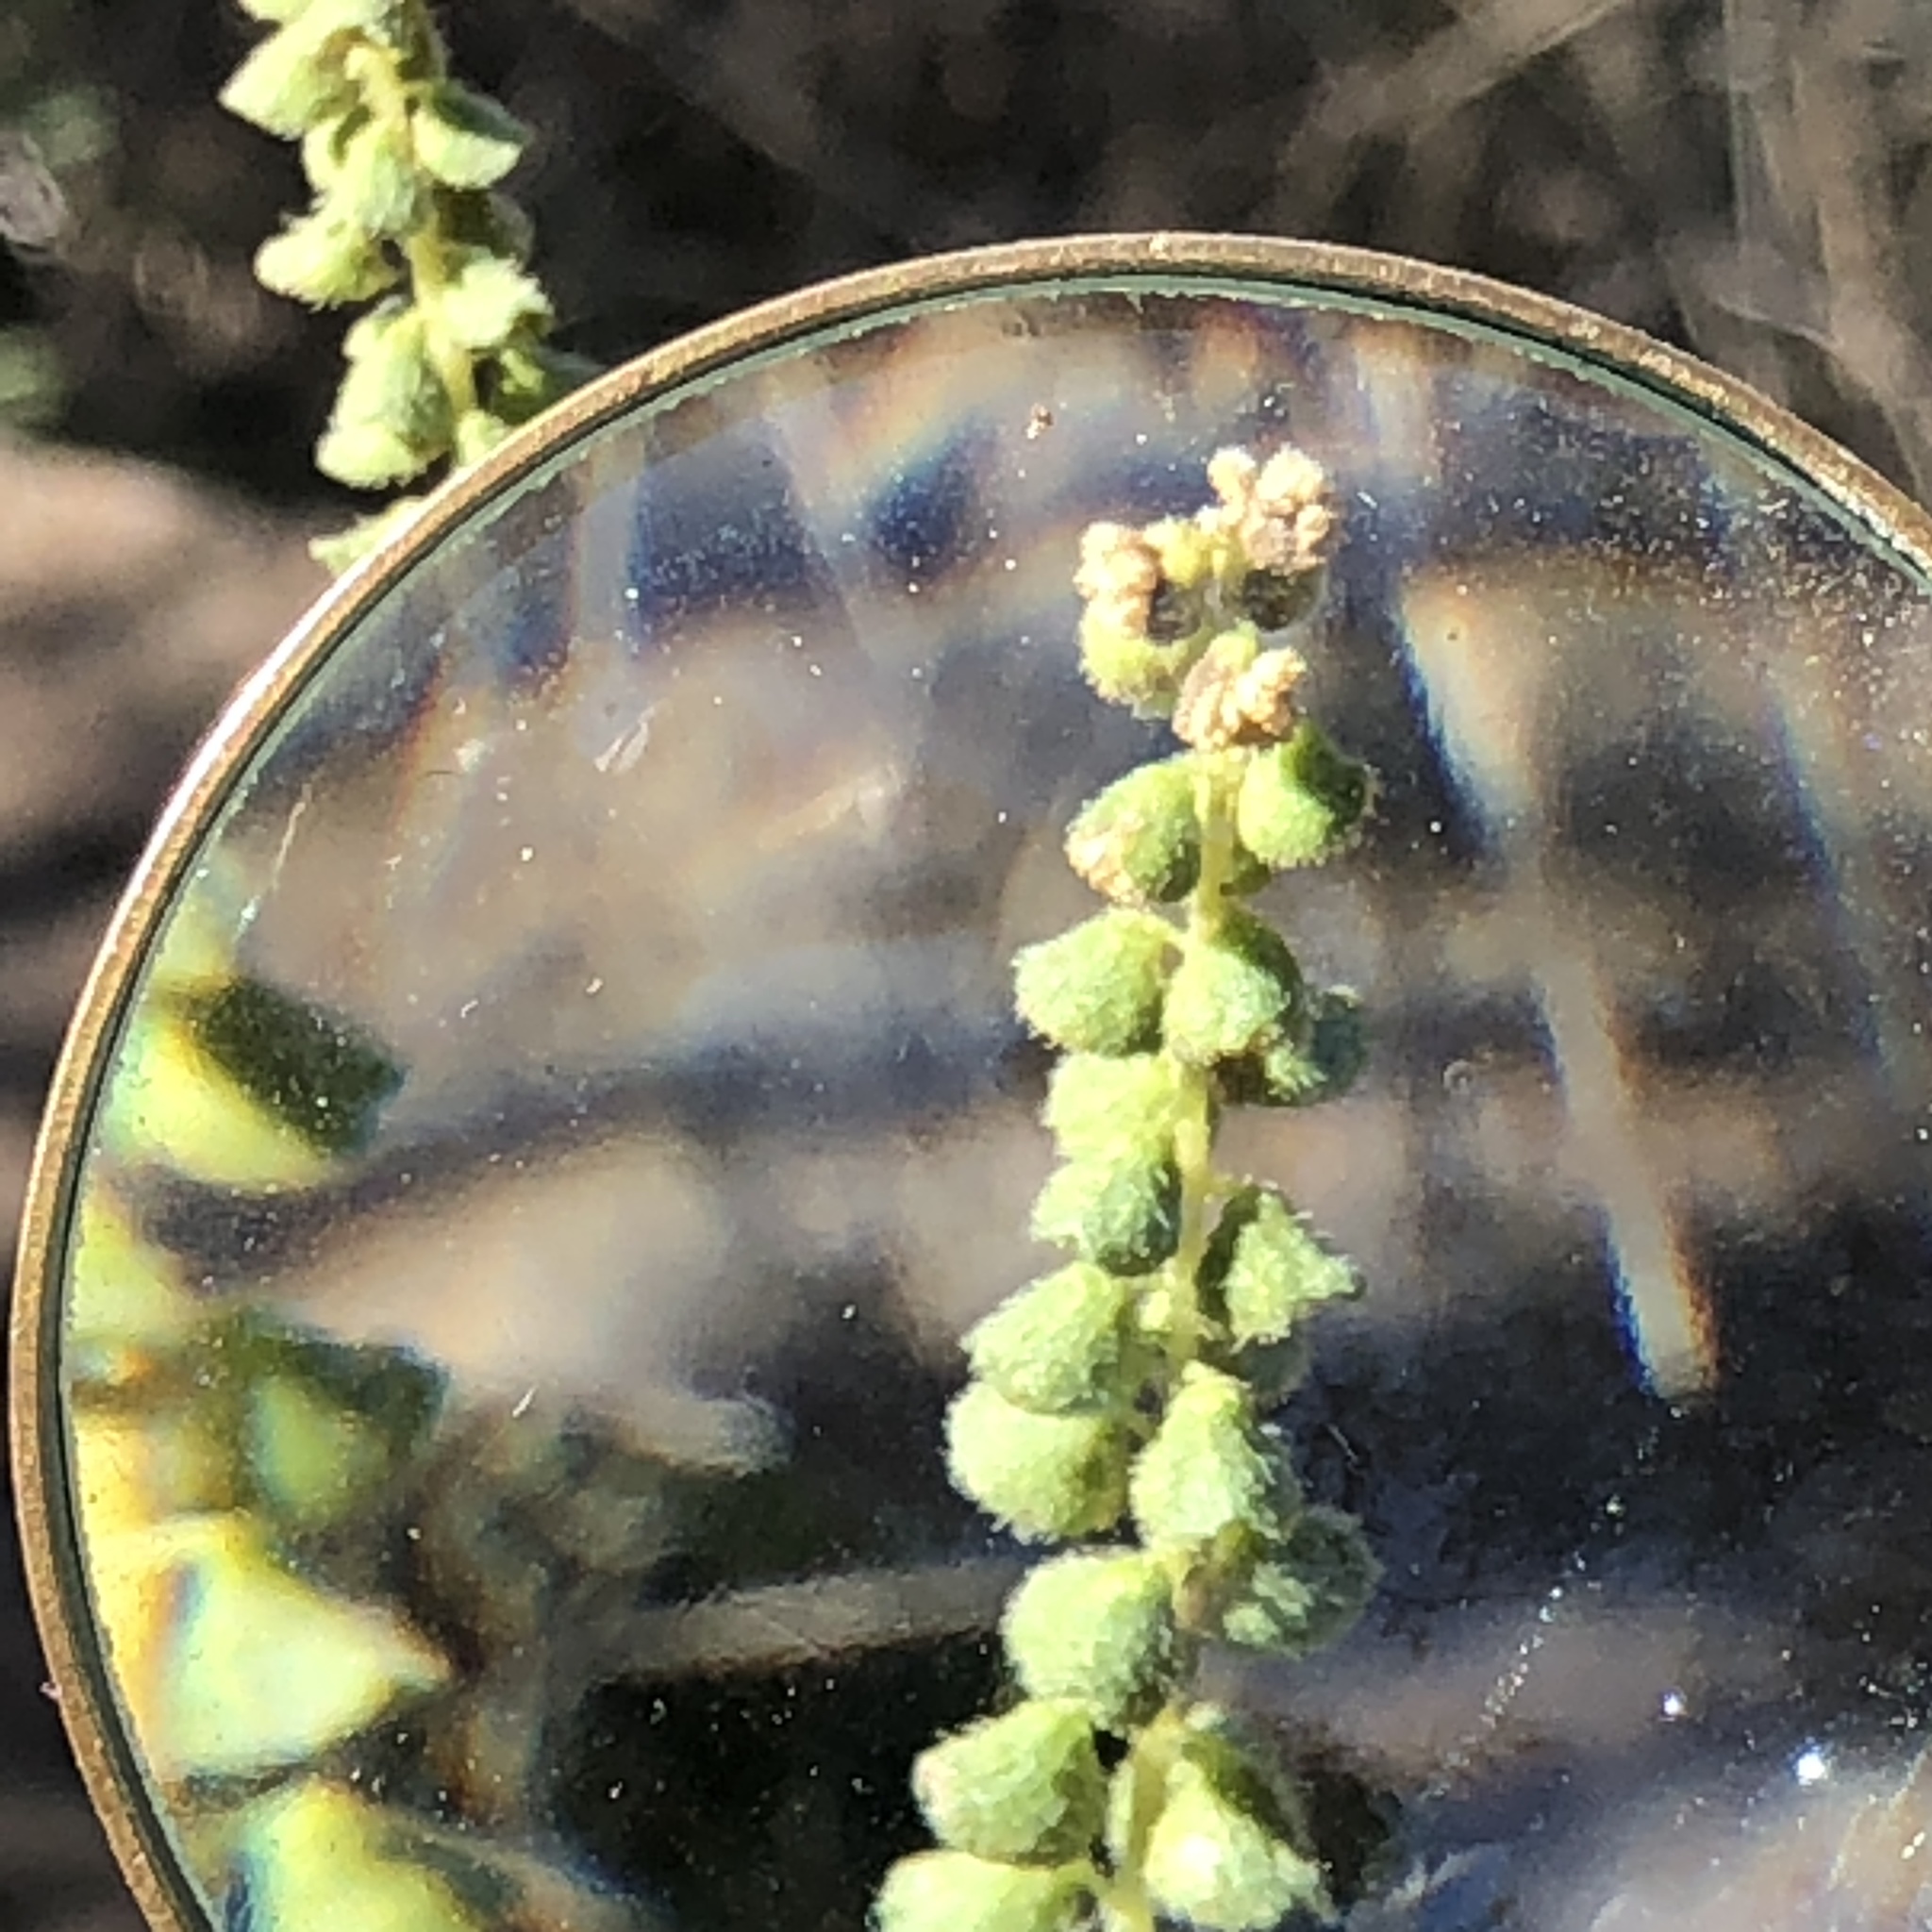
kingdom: Plantae
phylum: Tracheophyta
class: Magnoliopsida
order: Asterales
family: Asteraceae
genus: Ambrosia
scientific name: Ambrosia psilostachya
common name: Perennial ragweed
